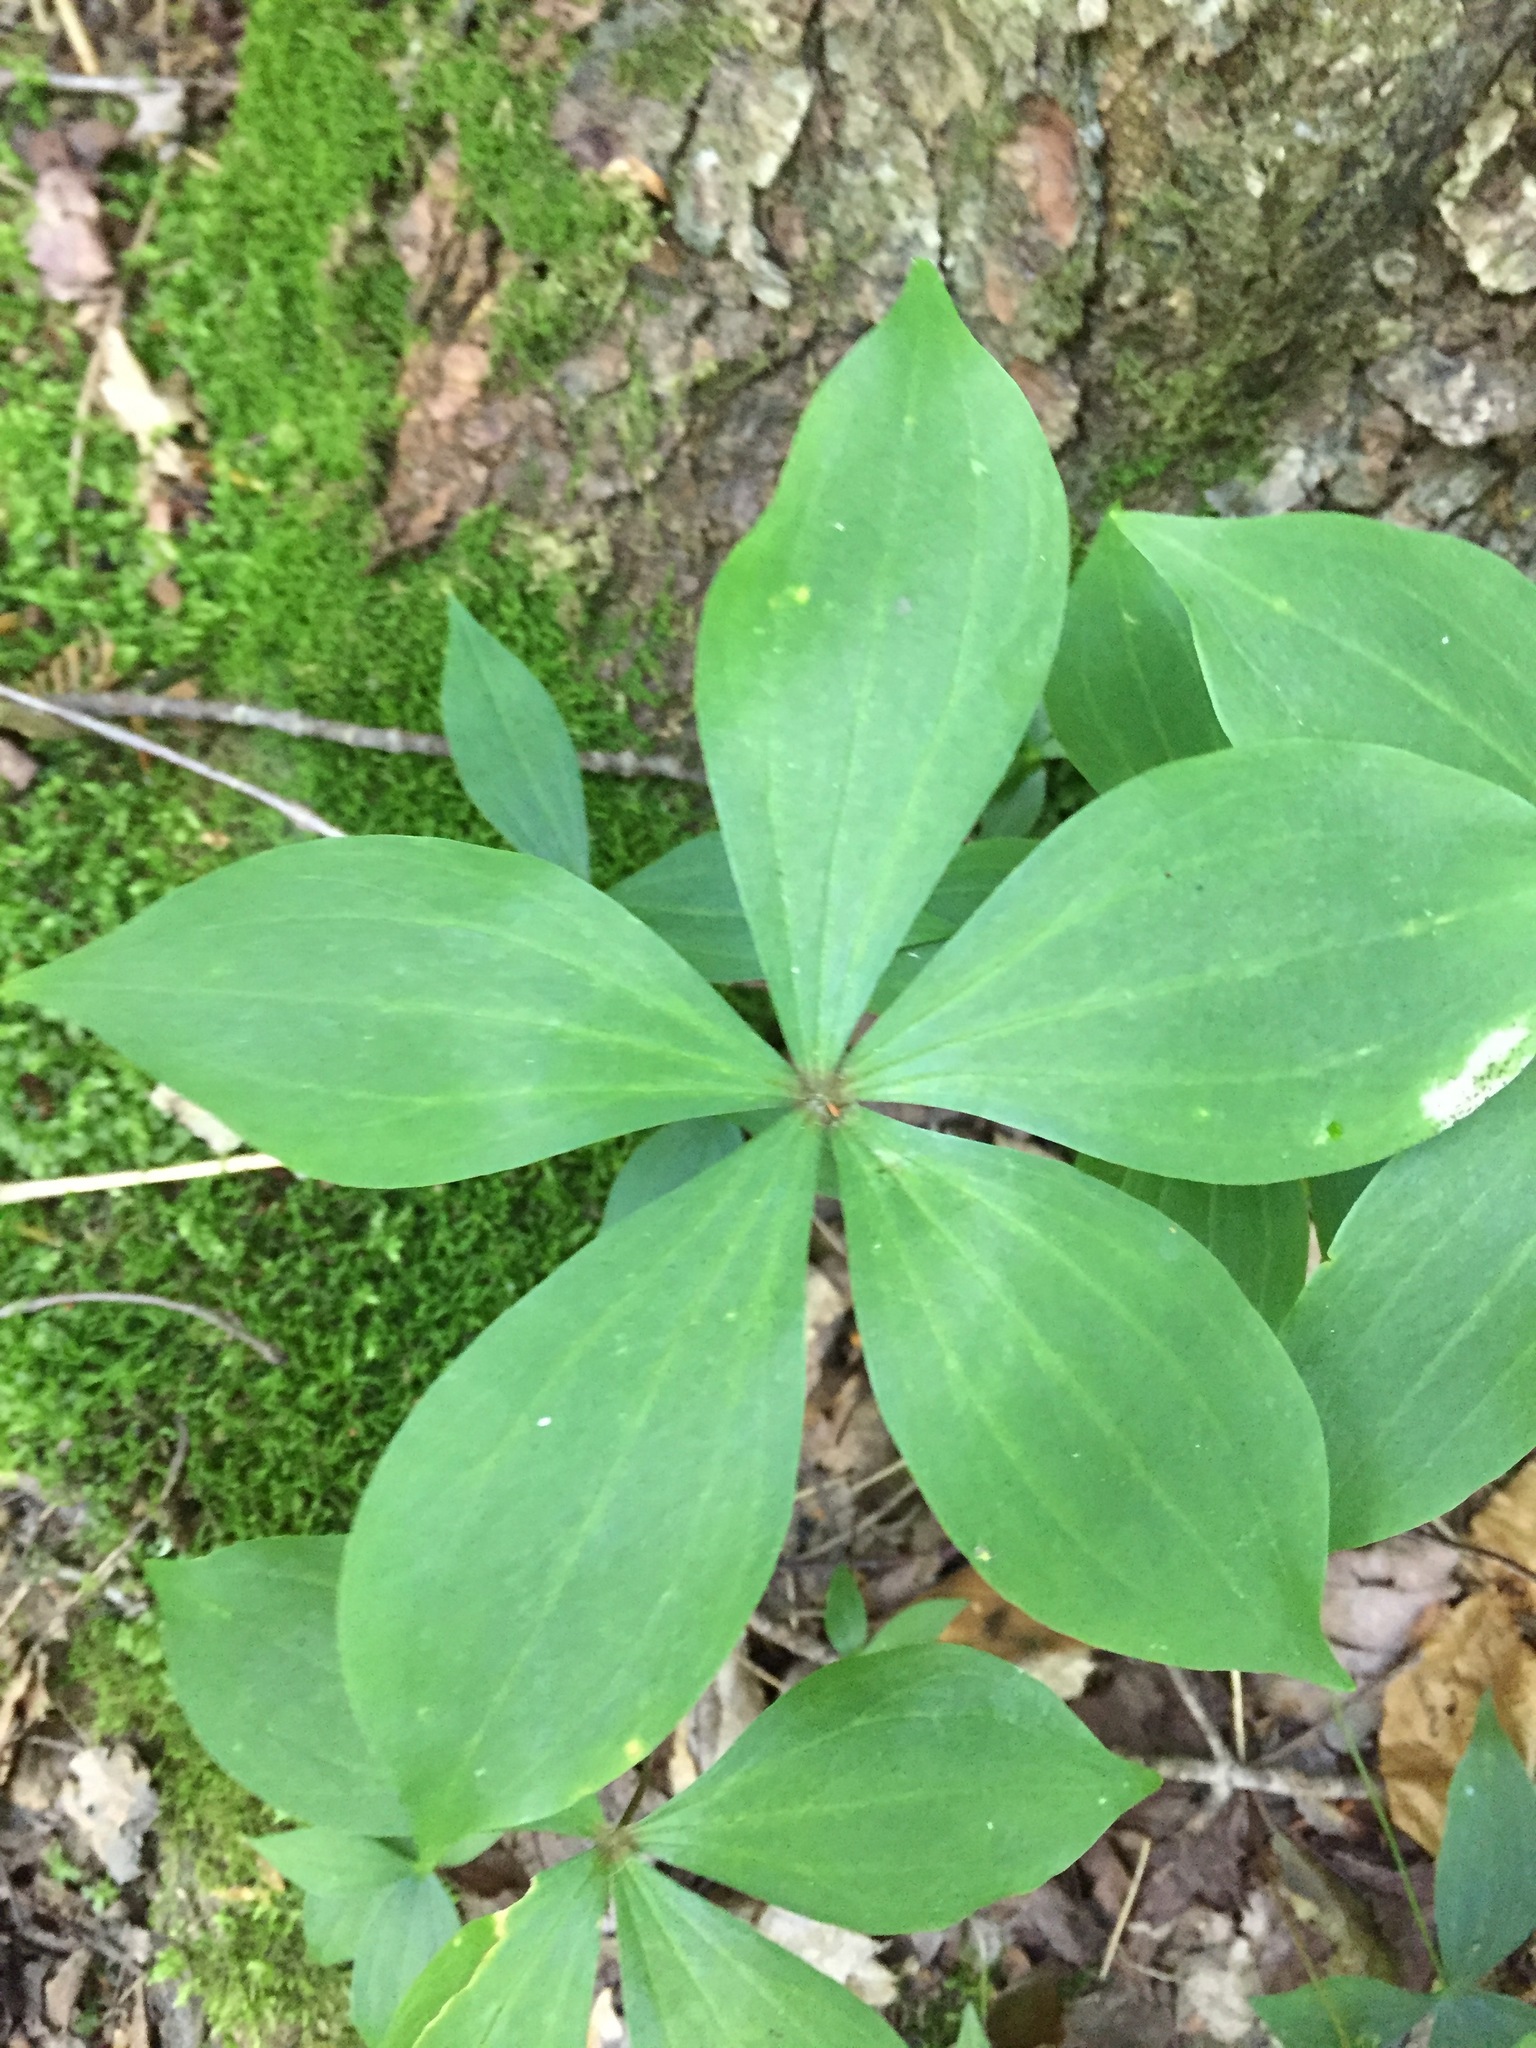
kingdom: Plantae
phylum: Tracheophyta
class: Liliopsida
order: Liliales
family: Liliaceae
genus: Medeola
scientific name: Medeola virginiana
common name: Indian cucumber-root
